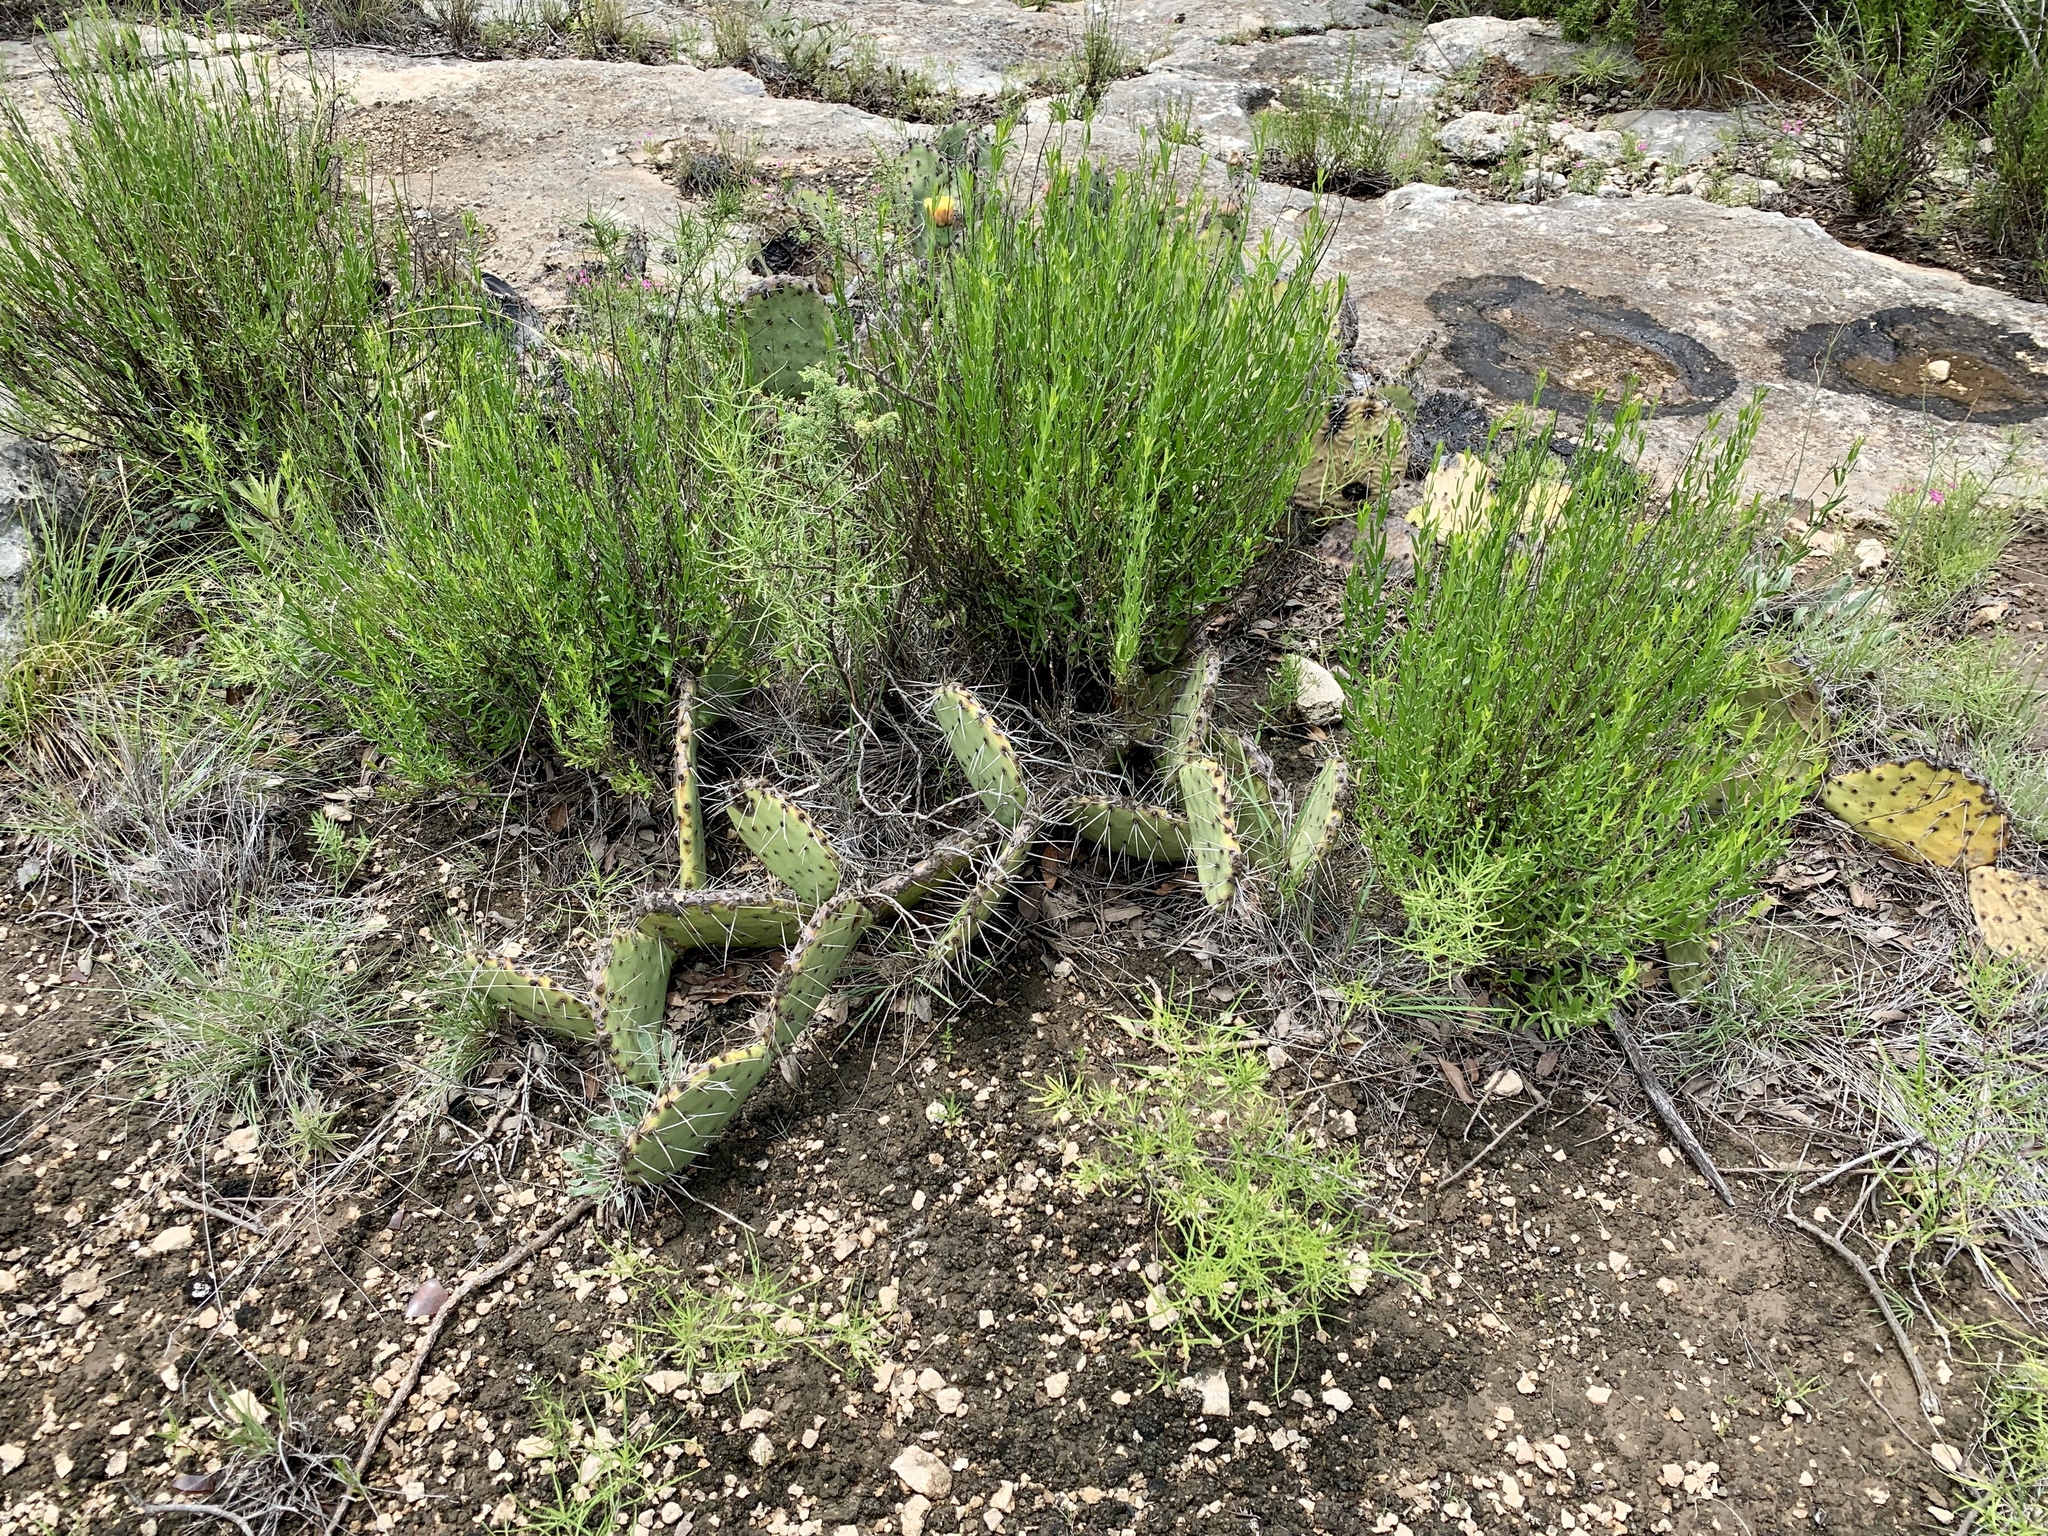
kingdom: Plantae
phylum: Tracheophyta
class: Magnoliopsida
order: Caryophyllales
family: Cactaceae
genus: Opuntia
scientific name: Opuntia phaeacantha
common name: New mexico prickly-pear
